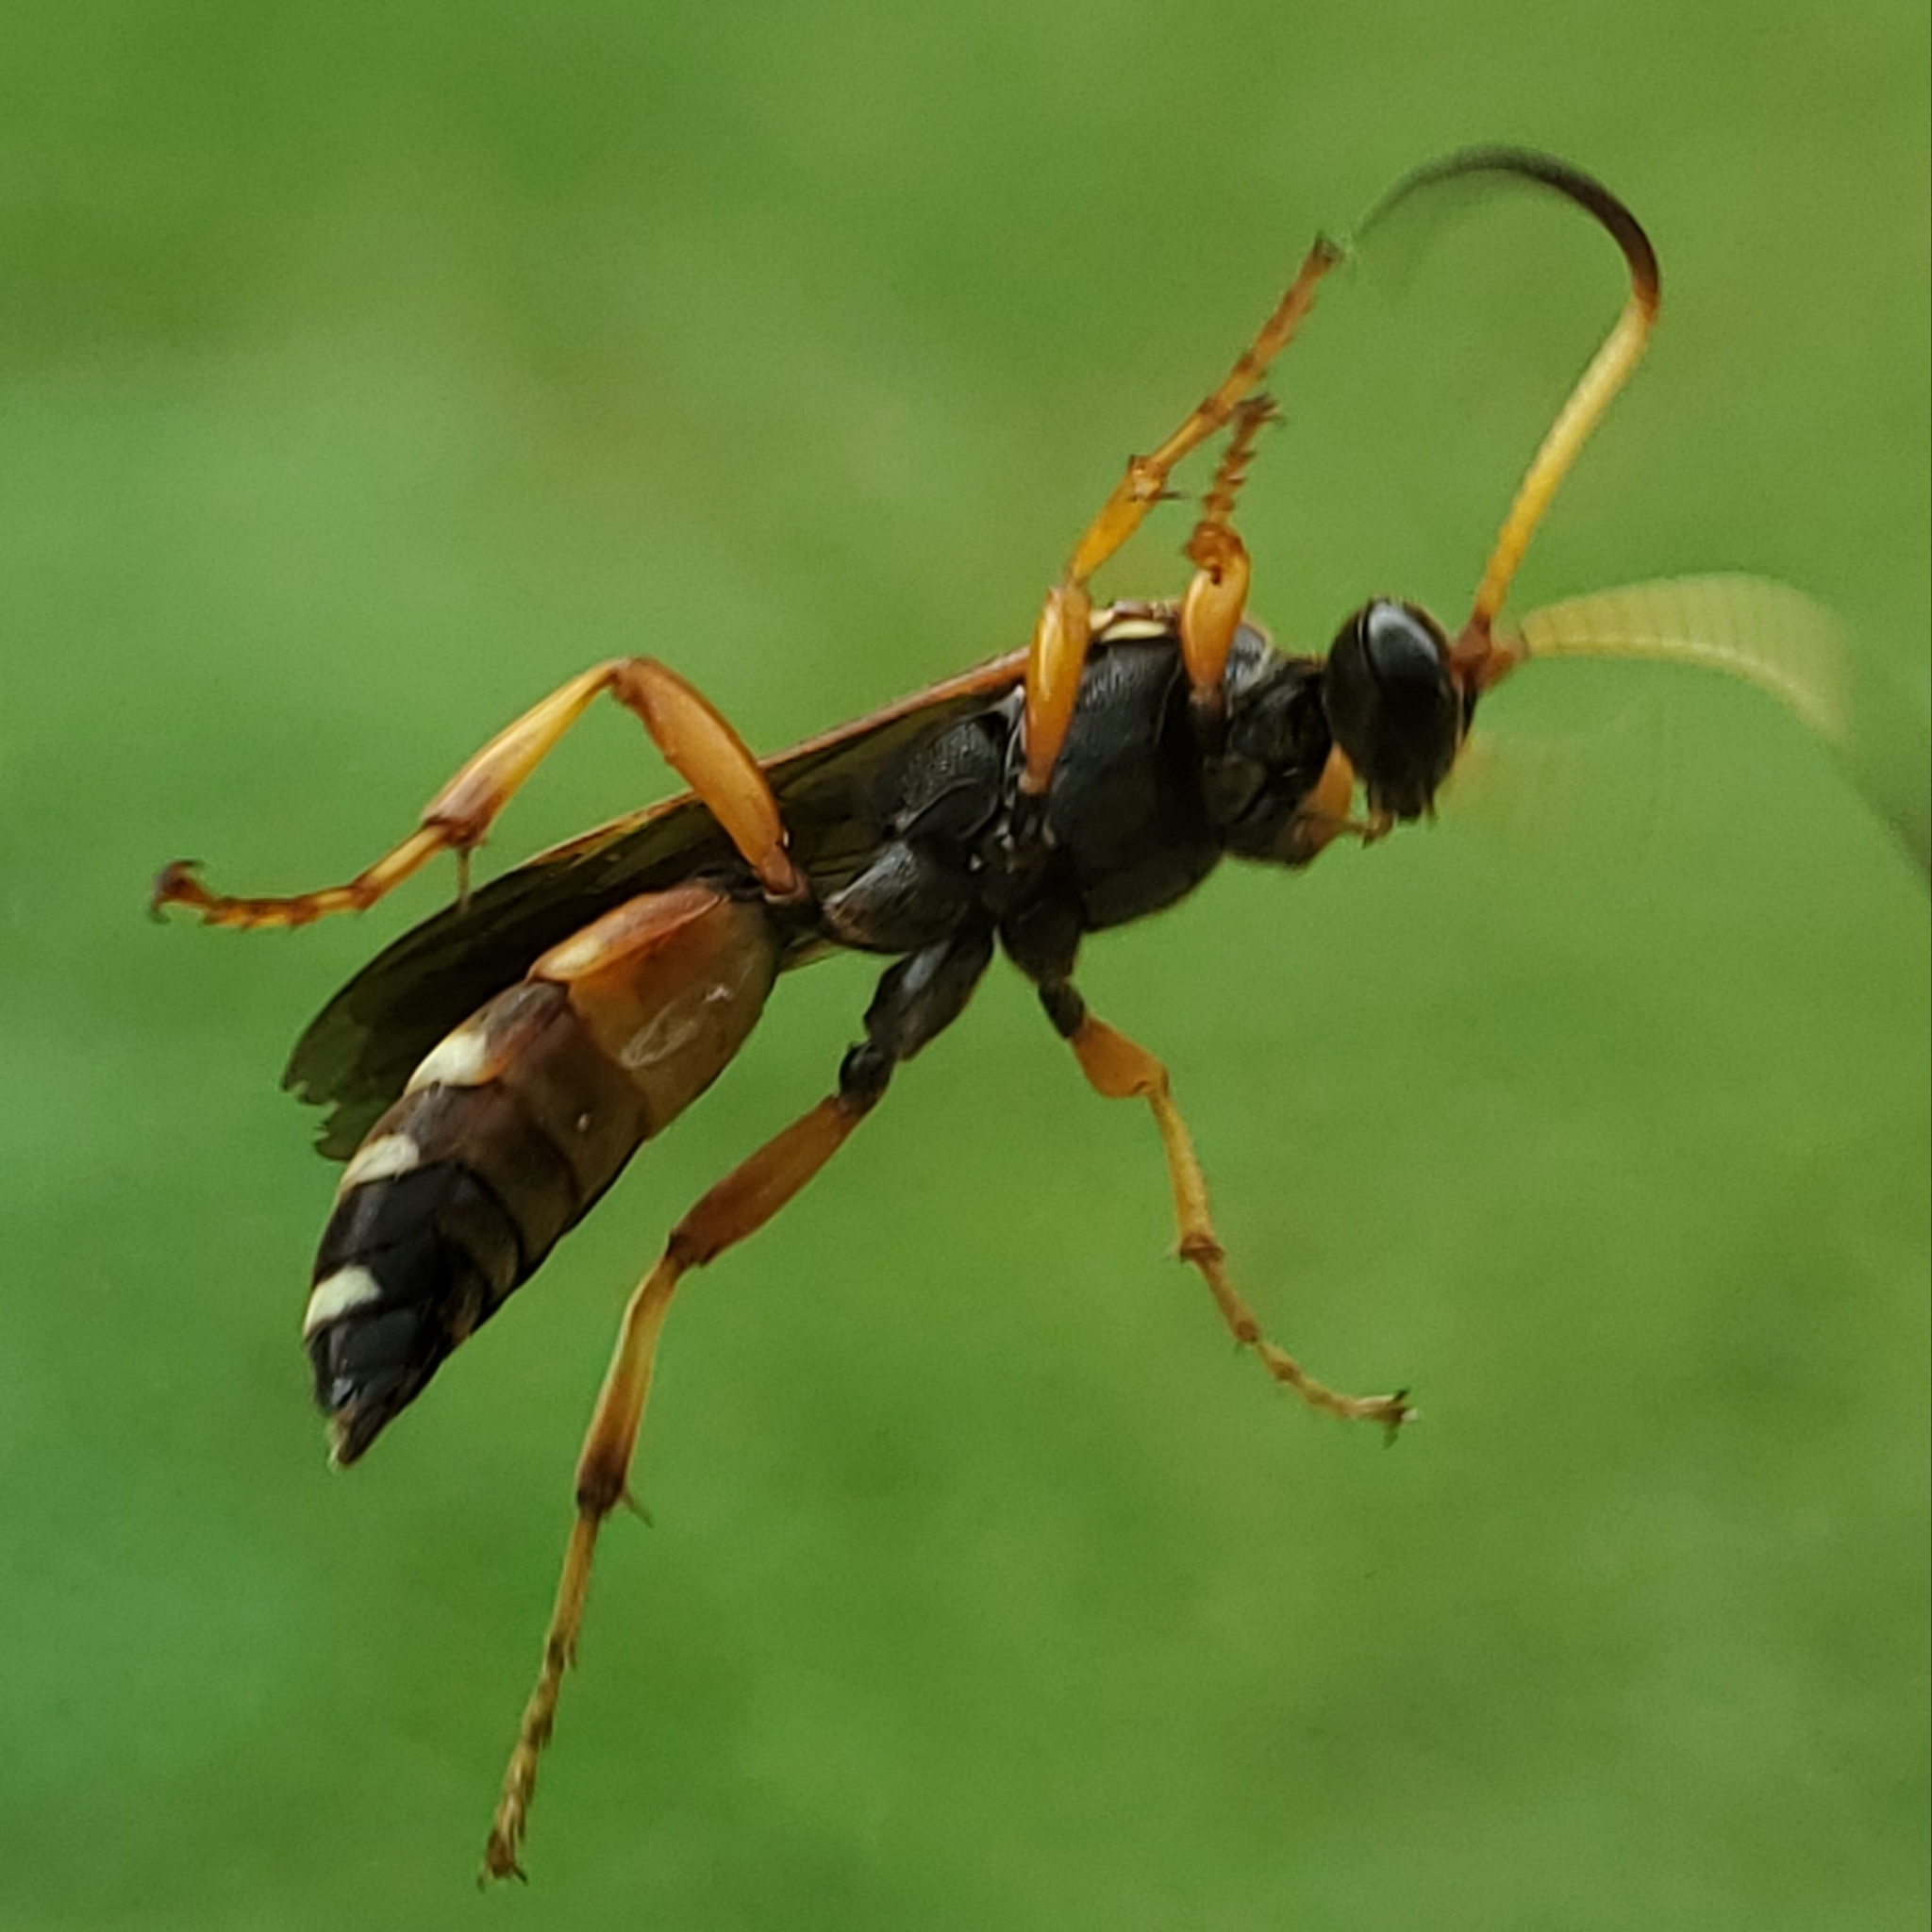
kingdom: Animalia
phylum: Arthropoda
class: Insecta
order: Hymenoptera
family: Ichneumonidae
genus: Ichneumon
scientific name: Ichneumon ambulatorius
